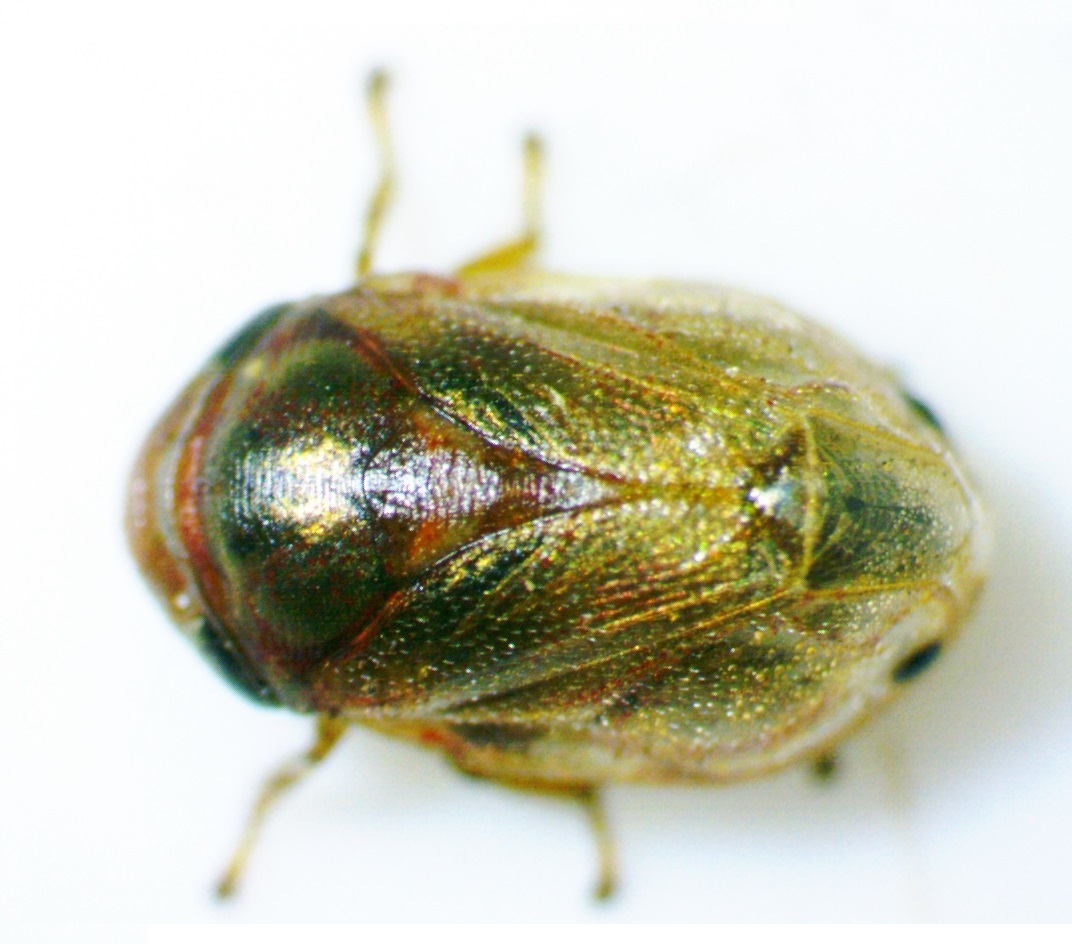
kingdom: Animalia
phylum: Arthropoda
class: Insecta
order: Hemiptera
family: Clastopteridae
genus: Clastoptera
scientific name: Clastoptera xanthocephala
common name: Sunflower spittlebug
